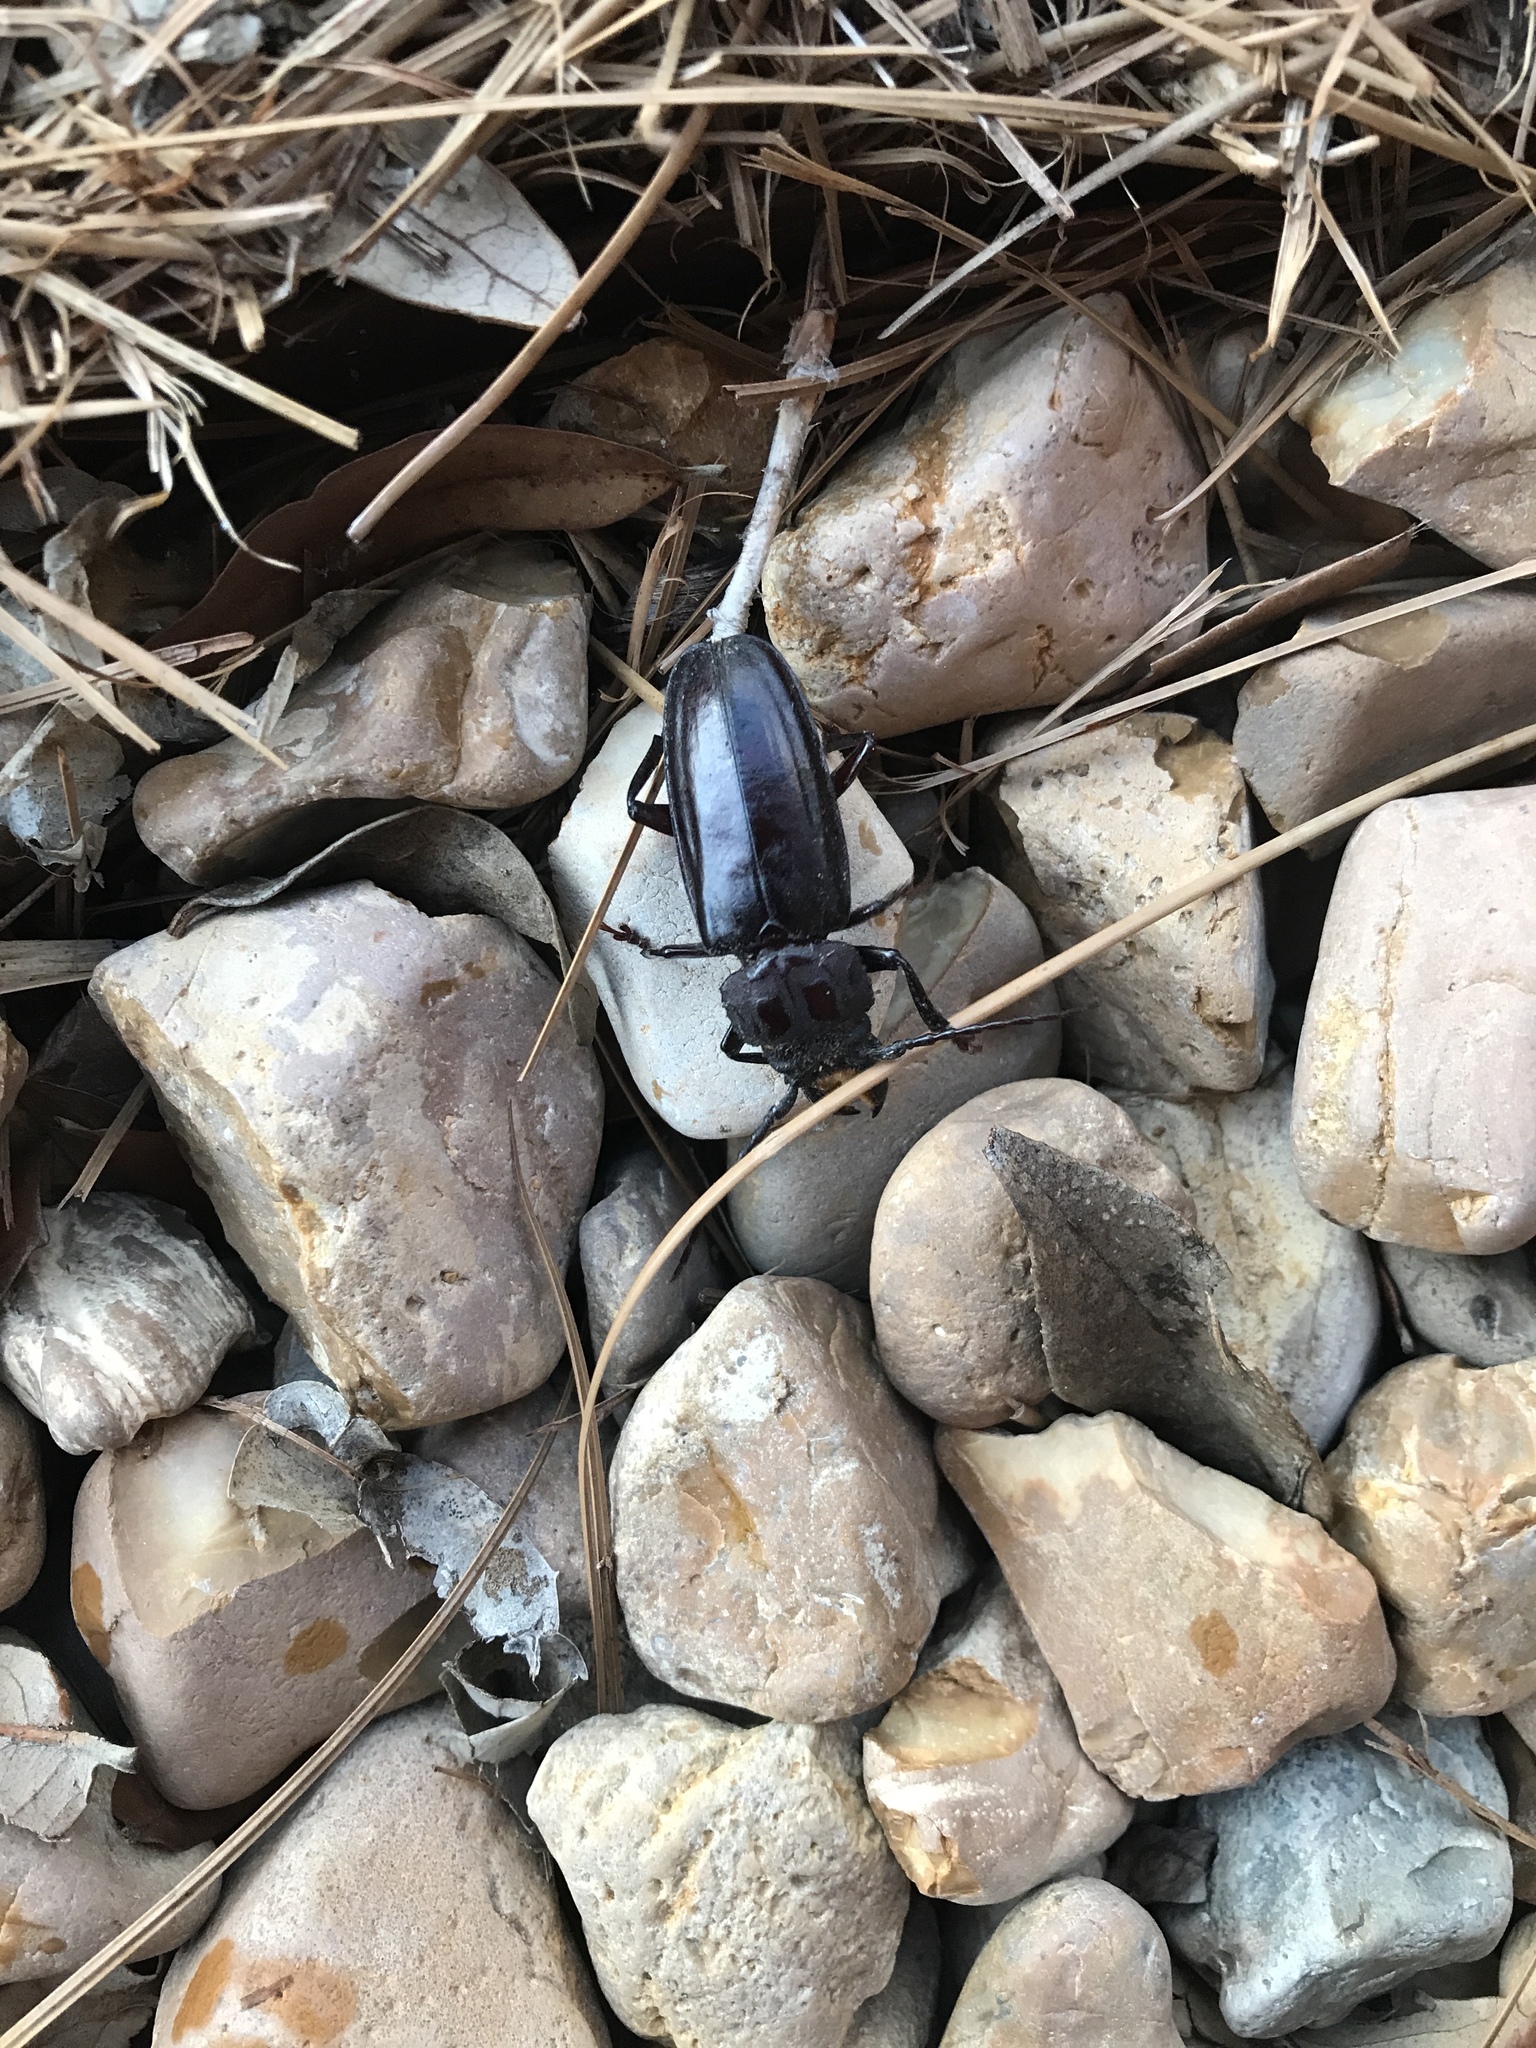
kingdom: Animalia
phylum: Arthropoda
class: Insecta
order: Coleoptera
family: Cerambycidae
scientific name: Cerambycidae
